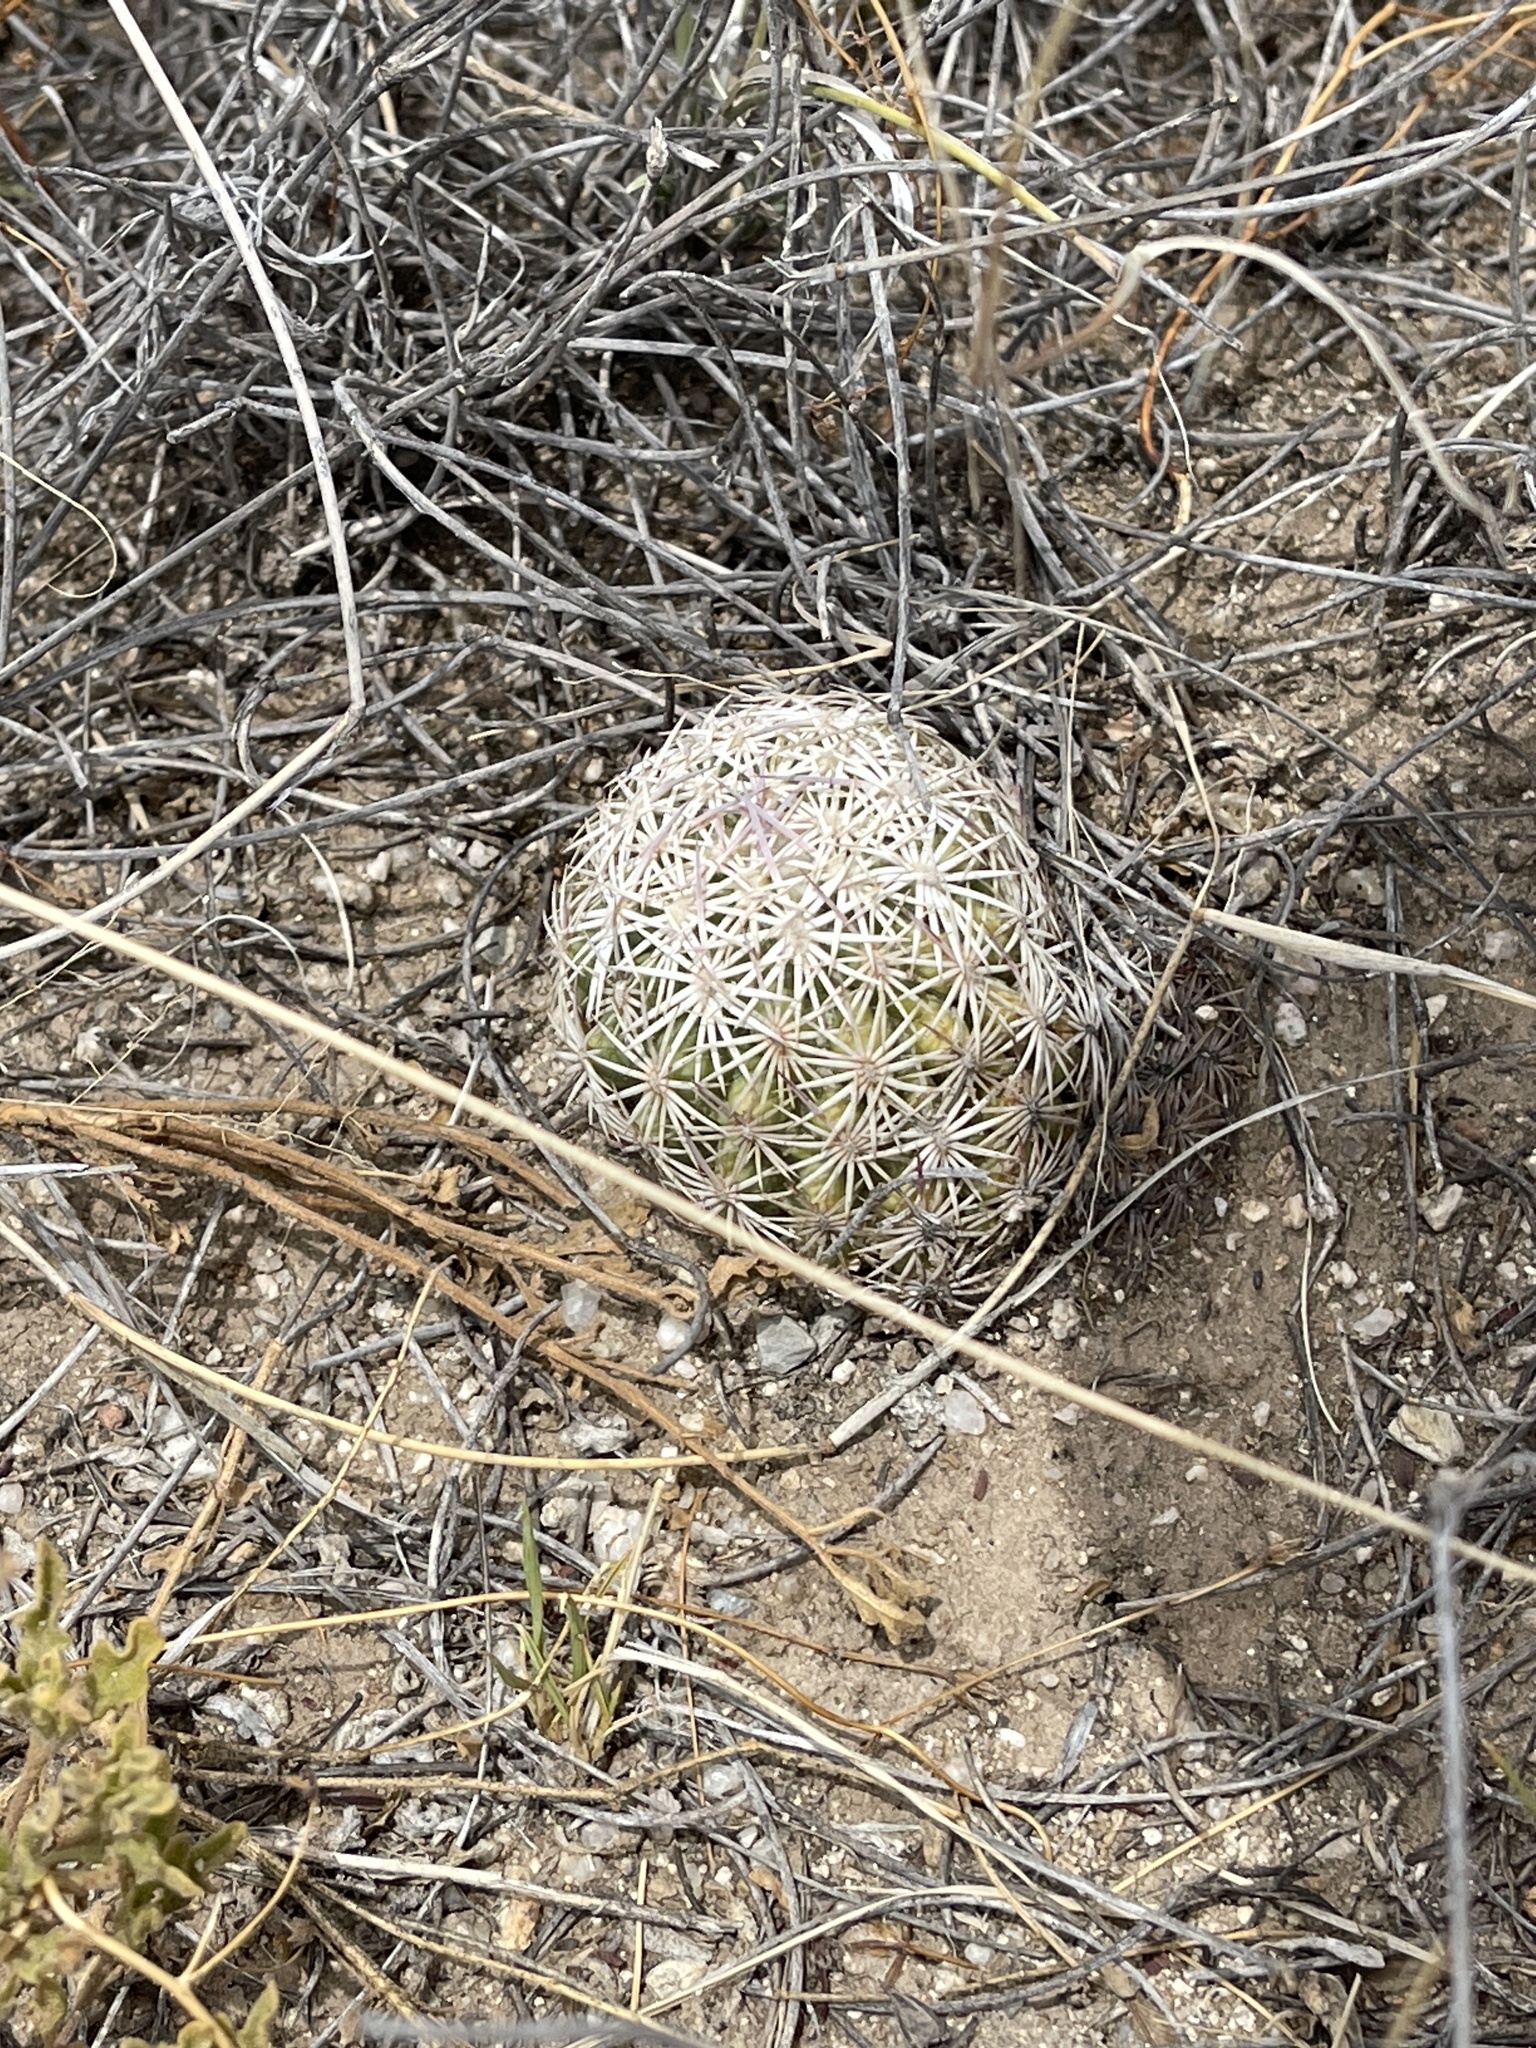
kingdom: Plantae
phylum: Tracheophyta
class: Magnoliopsida
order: Caryophyllales
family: Cactaceae
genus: Sclerocactus
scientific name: Sclerocactus johnsonii
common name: Eight-spine fishhook cactus
